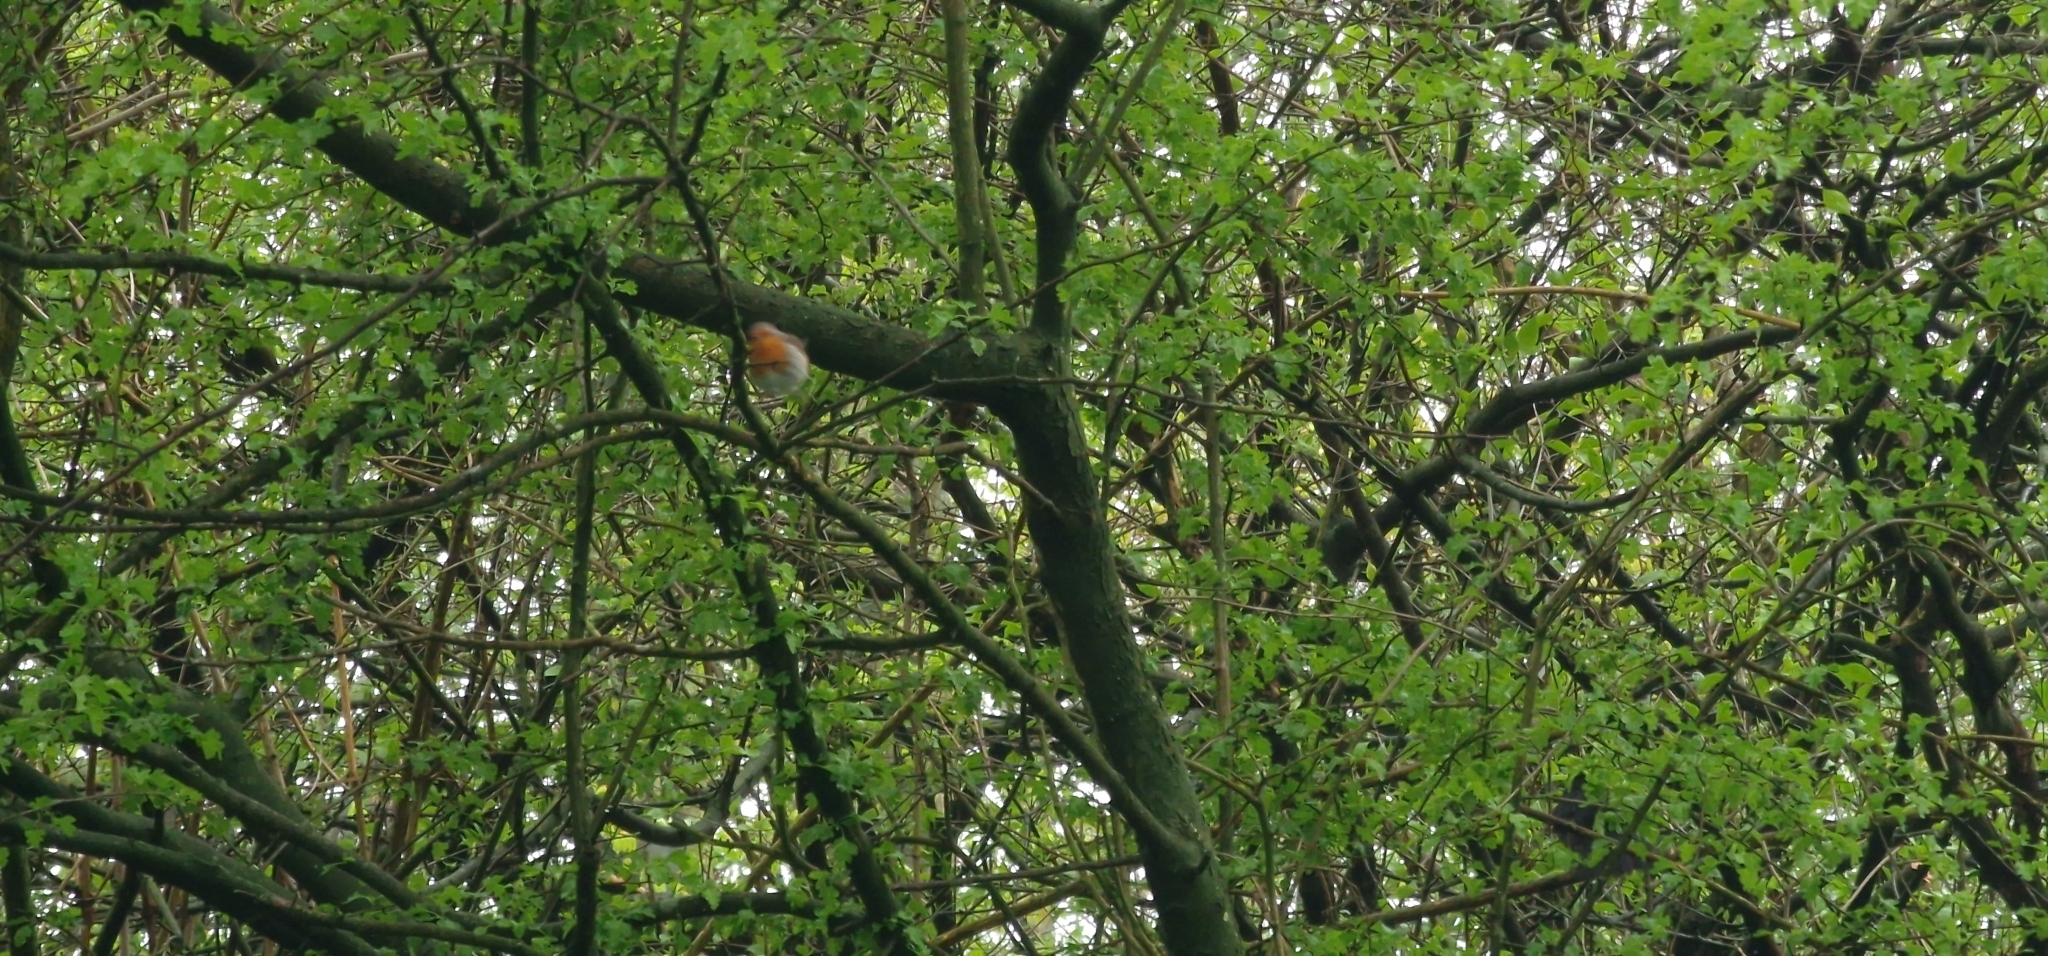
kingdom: Animalia
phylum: Chordata
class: Aves
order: Passeriformes
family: Muscicapidae
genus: Erithacus
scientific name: Erithacus rubecula
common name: European robin
